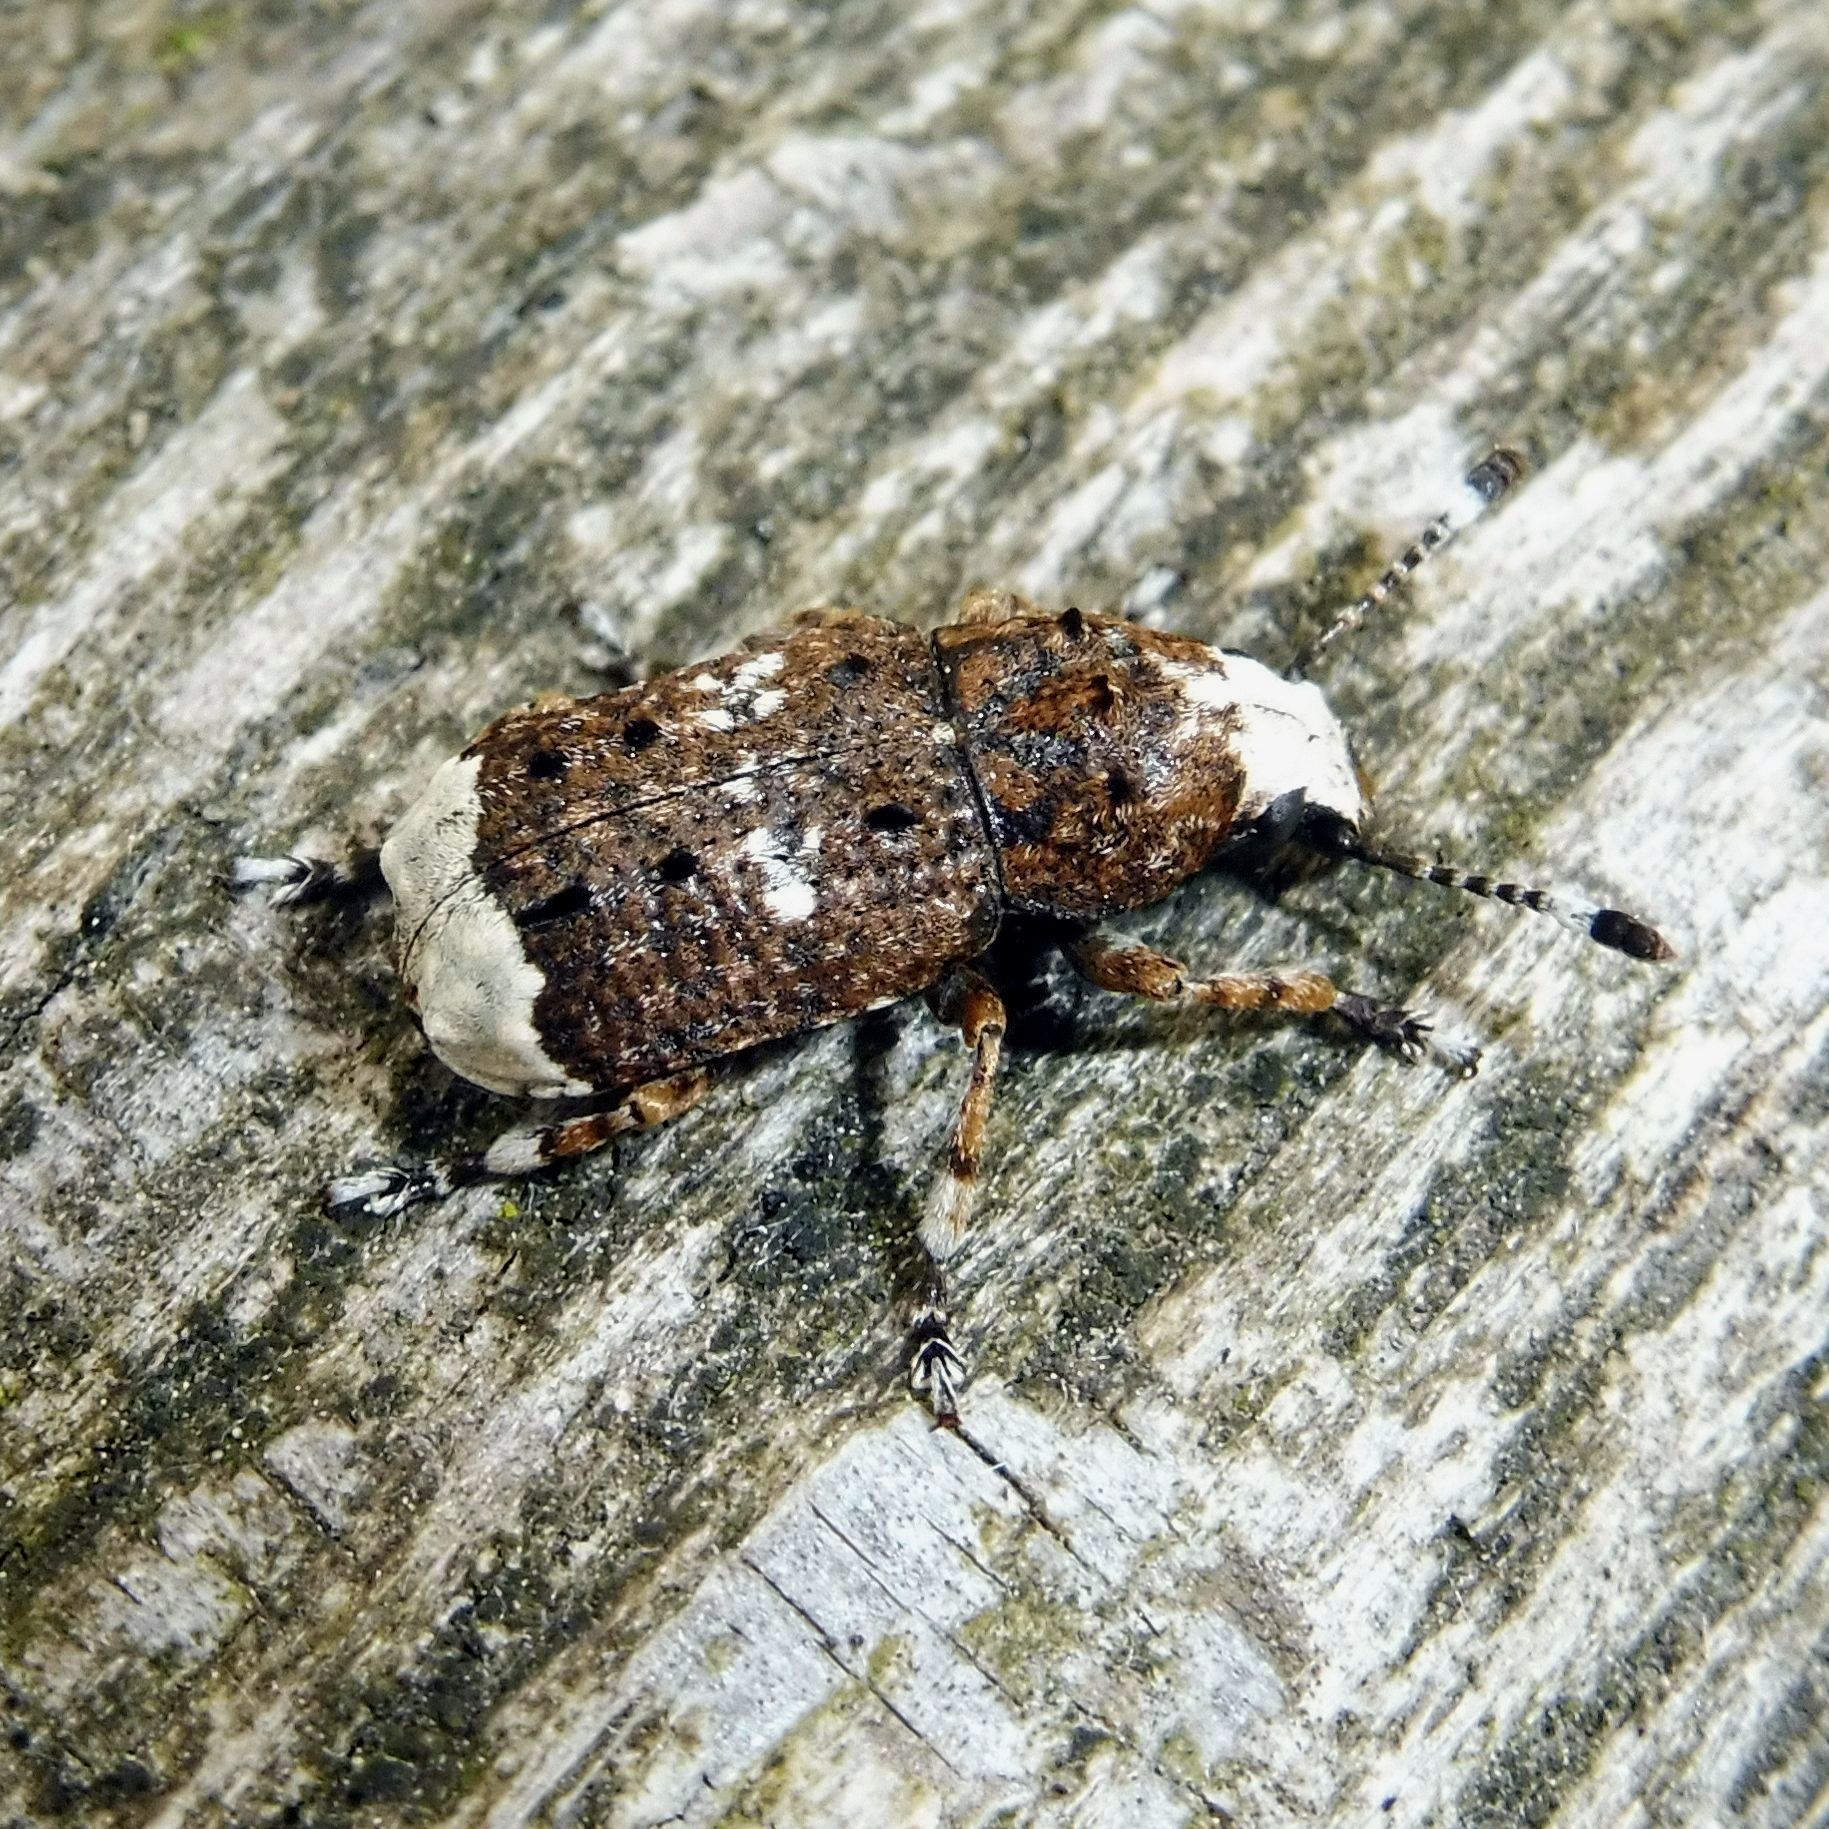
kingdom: Animalia
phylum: Arthropoda
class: Insecta
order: Coleoptera
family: Anthribidae
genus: Platystomos
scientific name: Platystomos albinus
